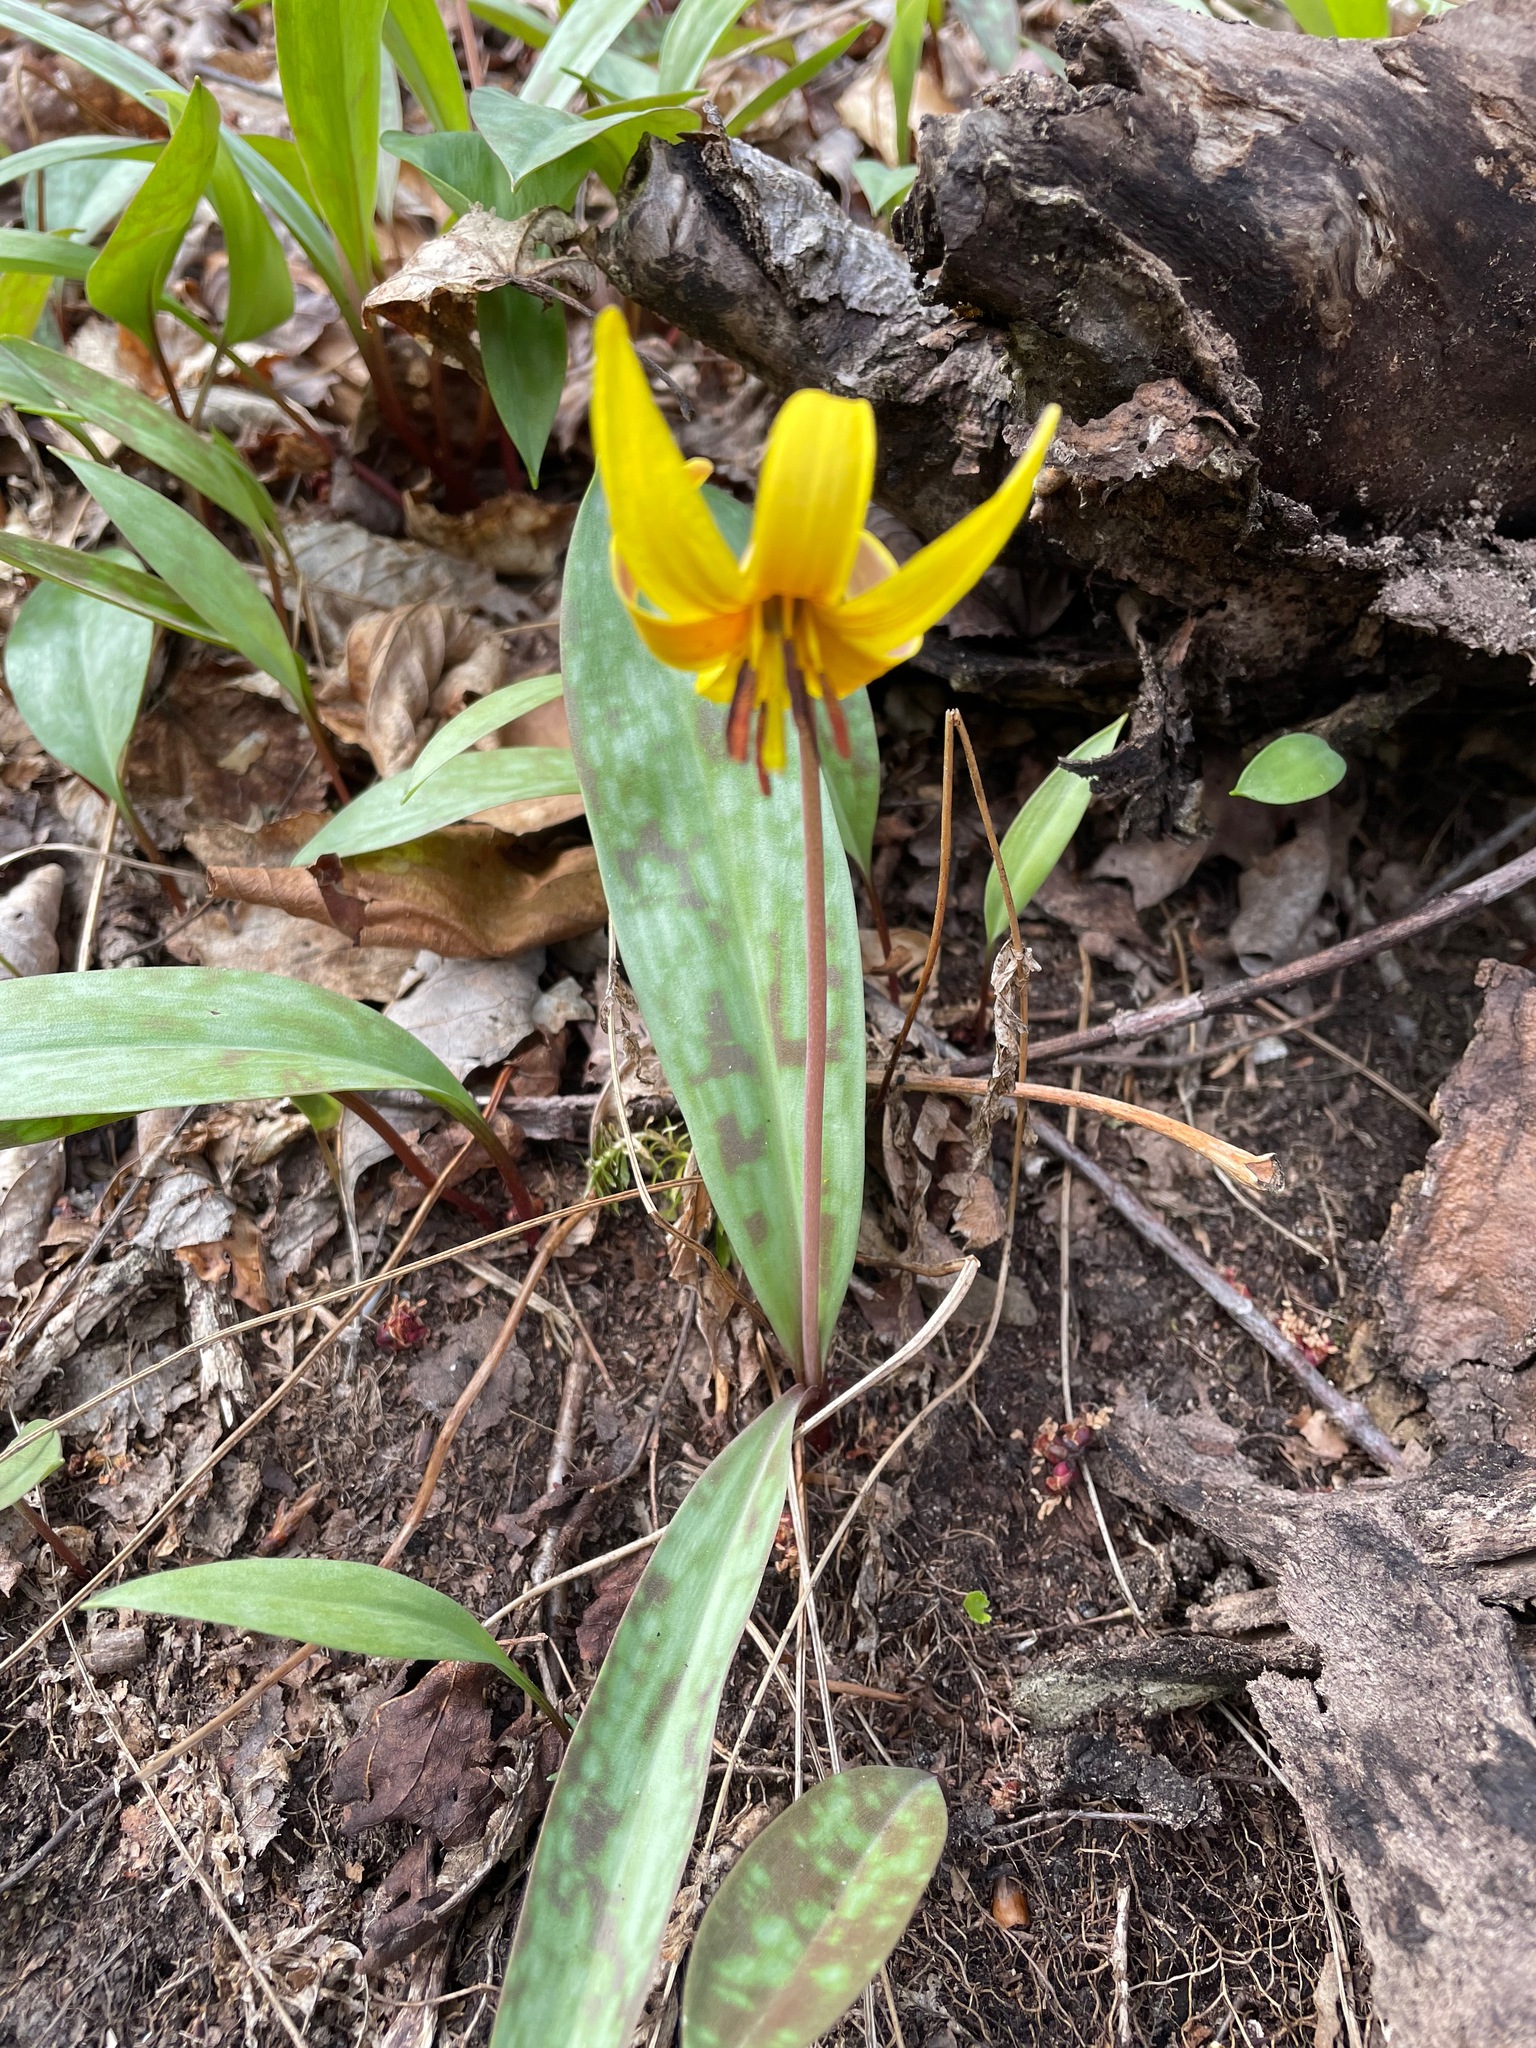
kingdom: Plantae
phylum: Tracheophyta
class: Liliopsida
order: Liliales
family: Liliaceae
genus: Erythronium
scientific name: Erythronium americanum
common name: Yellow adder's-tongue
